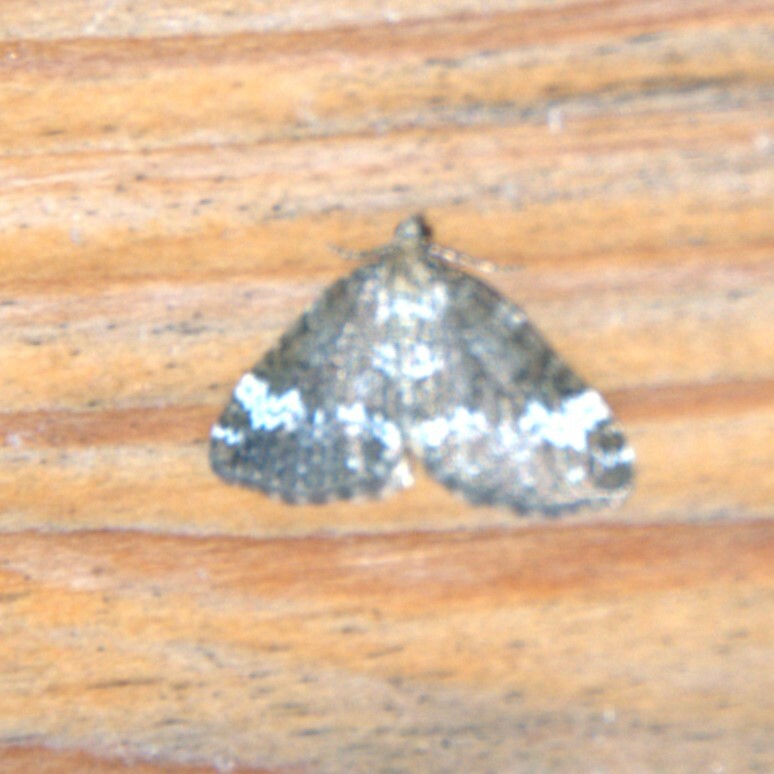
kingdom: Animalia
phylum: Arthropoda
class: Insecta
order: Lepidoptera
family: Geometridae
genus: Perizoma
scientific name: Perizoma alchemillata
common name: Small rivulet
